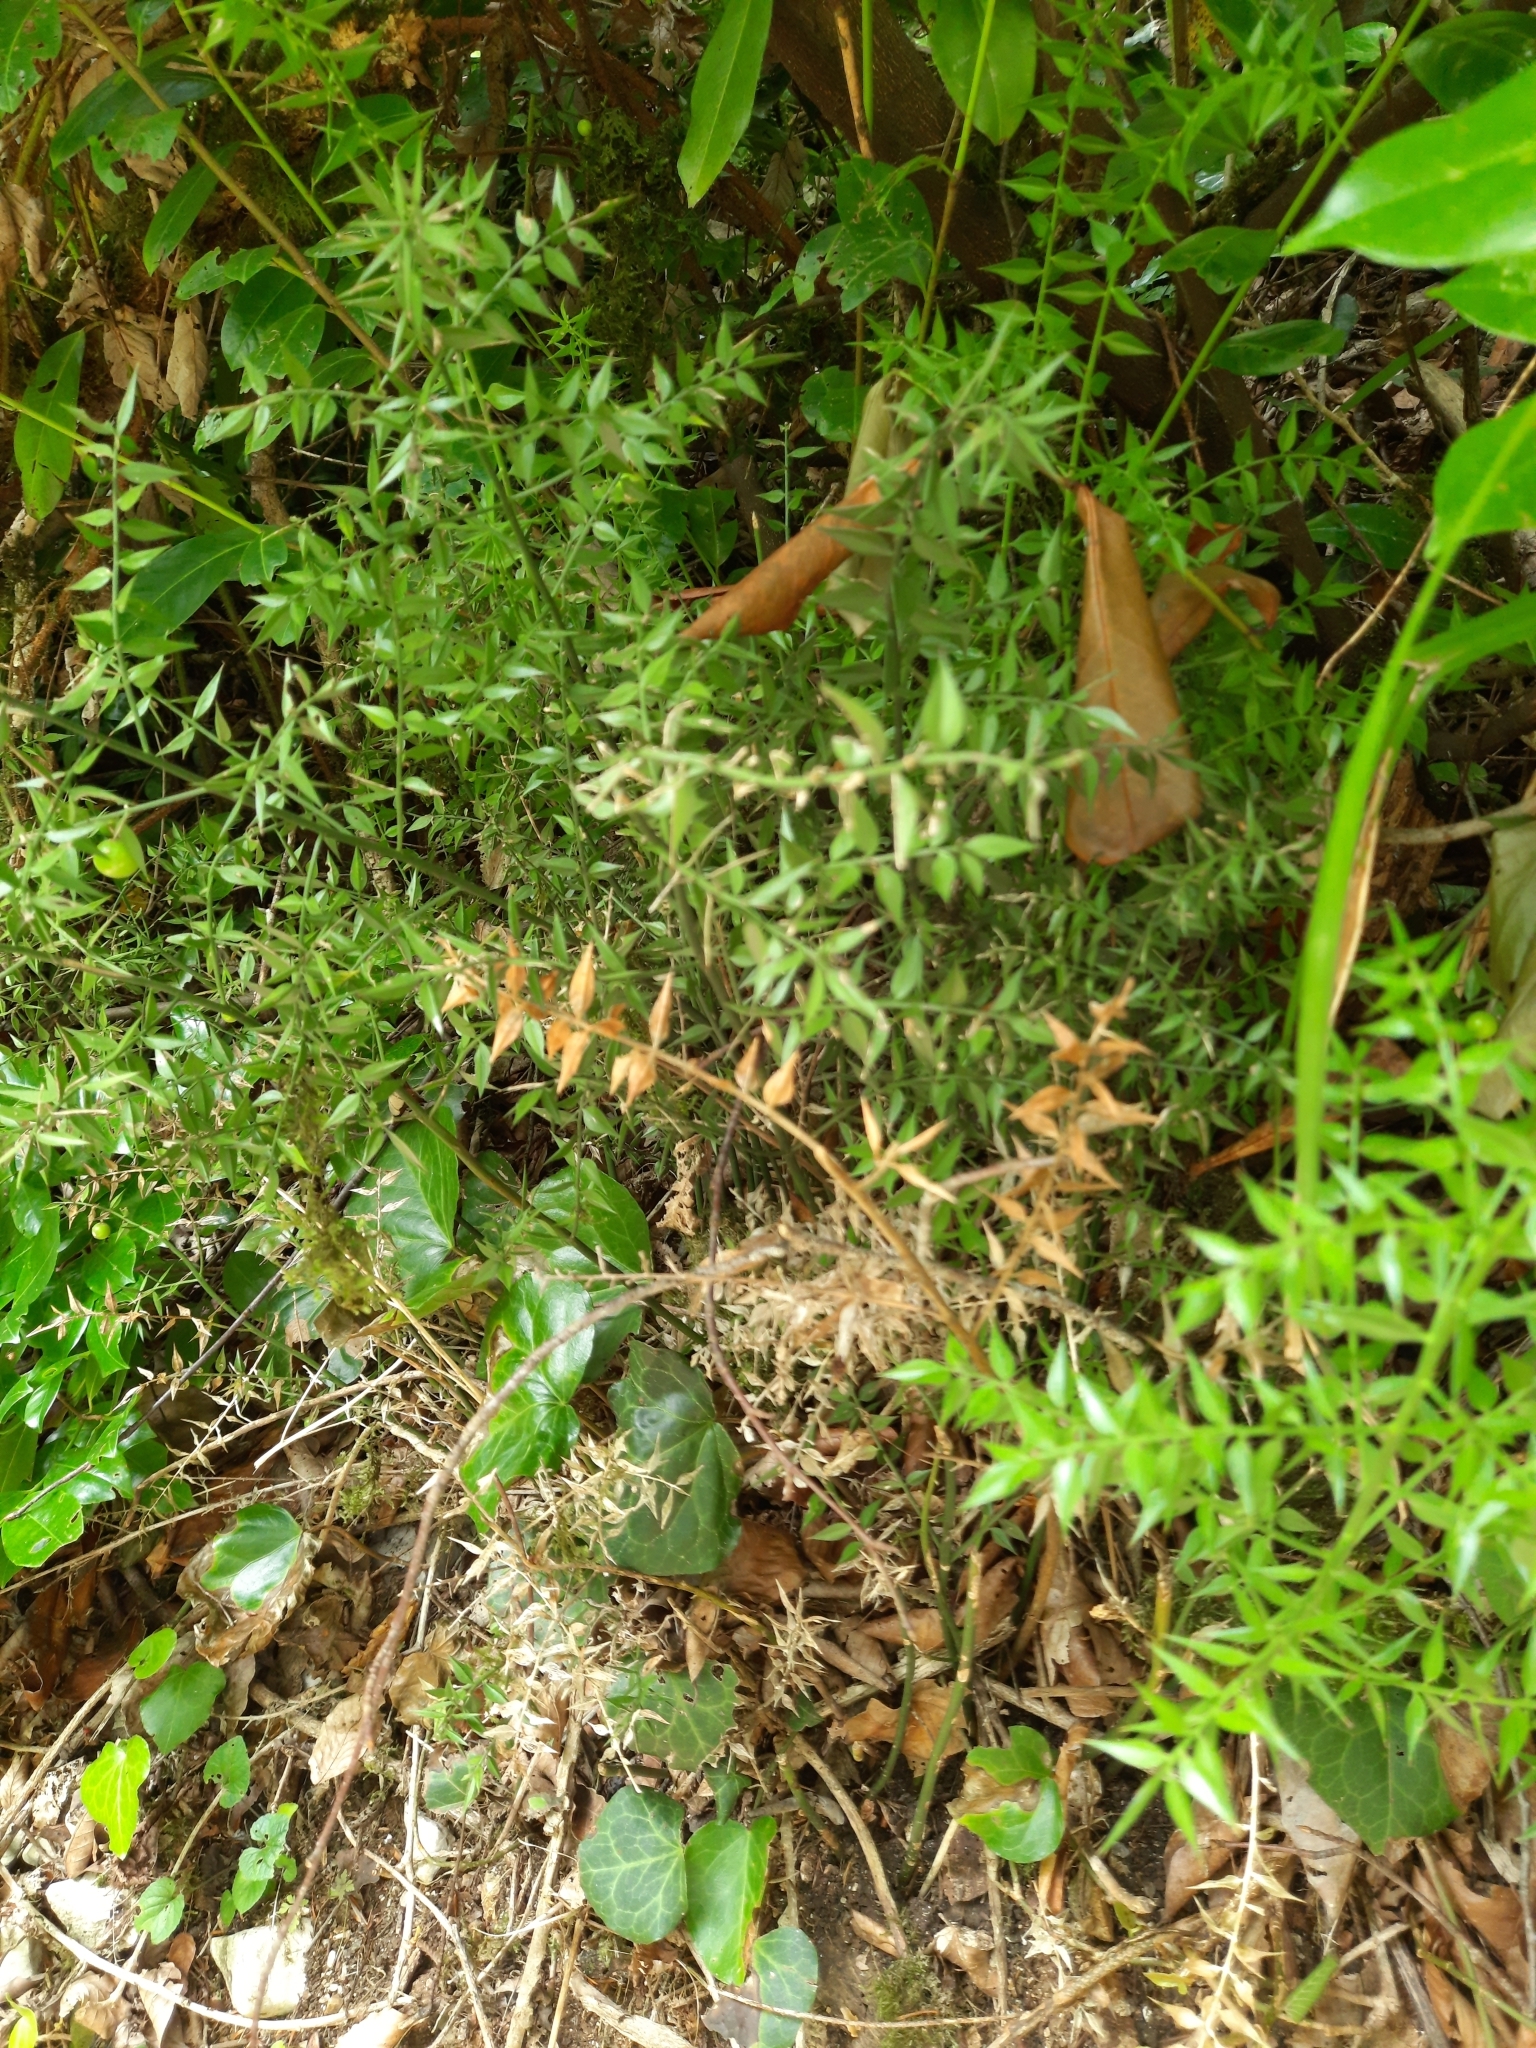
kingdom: Plantae
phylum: Tracheophyta
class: Liliopsida
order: Asparagales
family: Asparagaceae
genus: Ruscus
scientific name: Ruscus aculeatus
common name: Butcher's-broom
